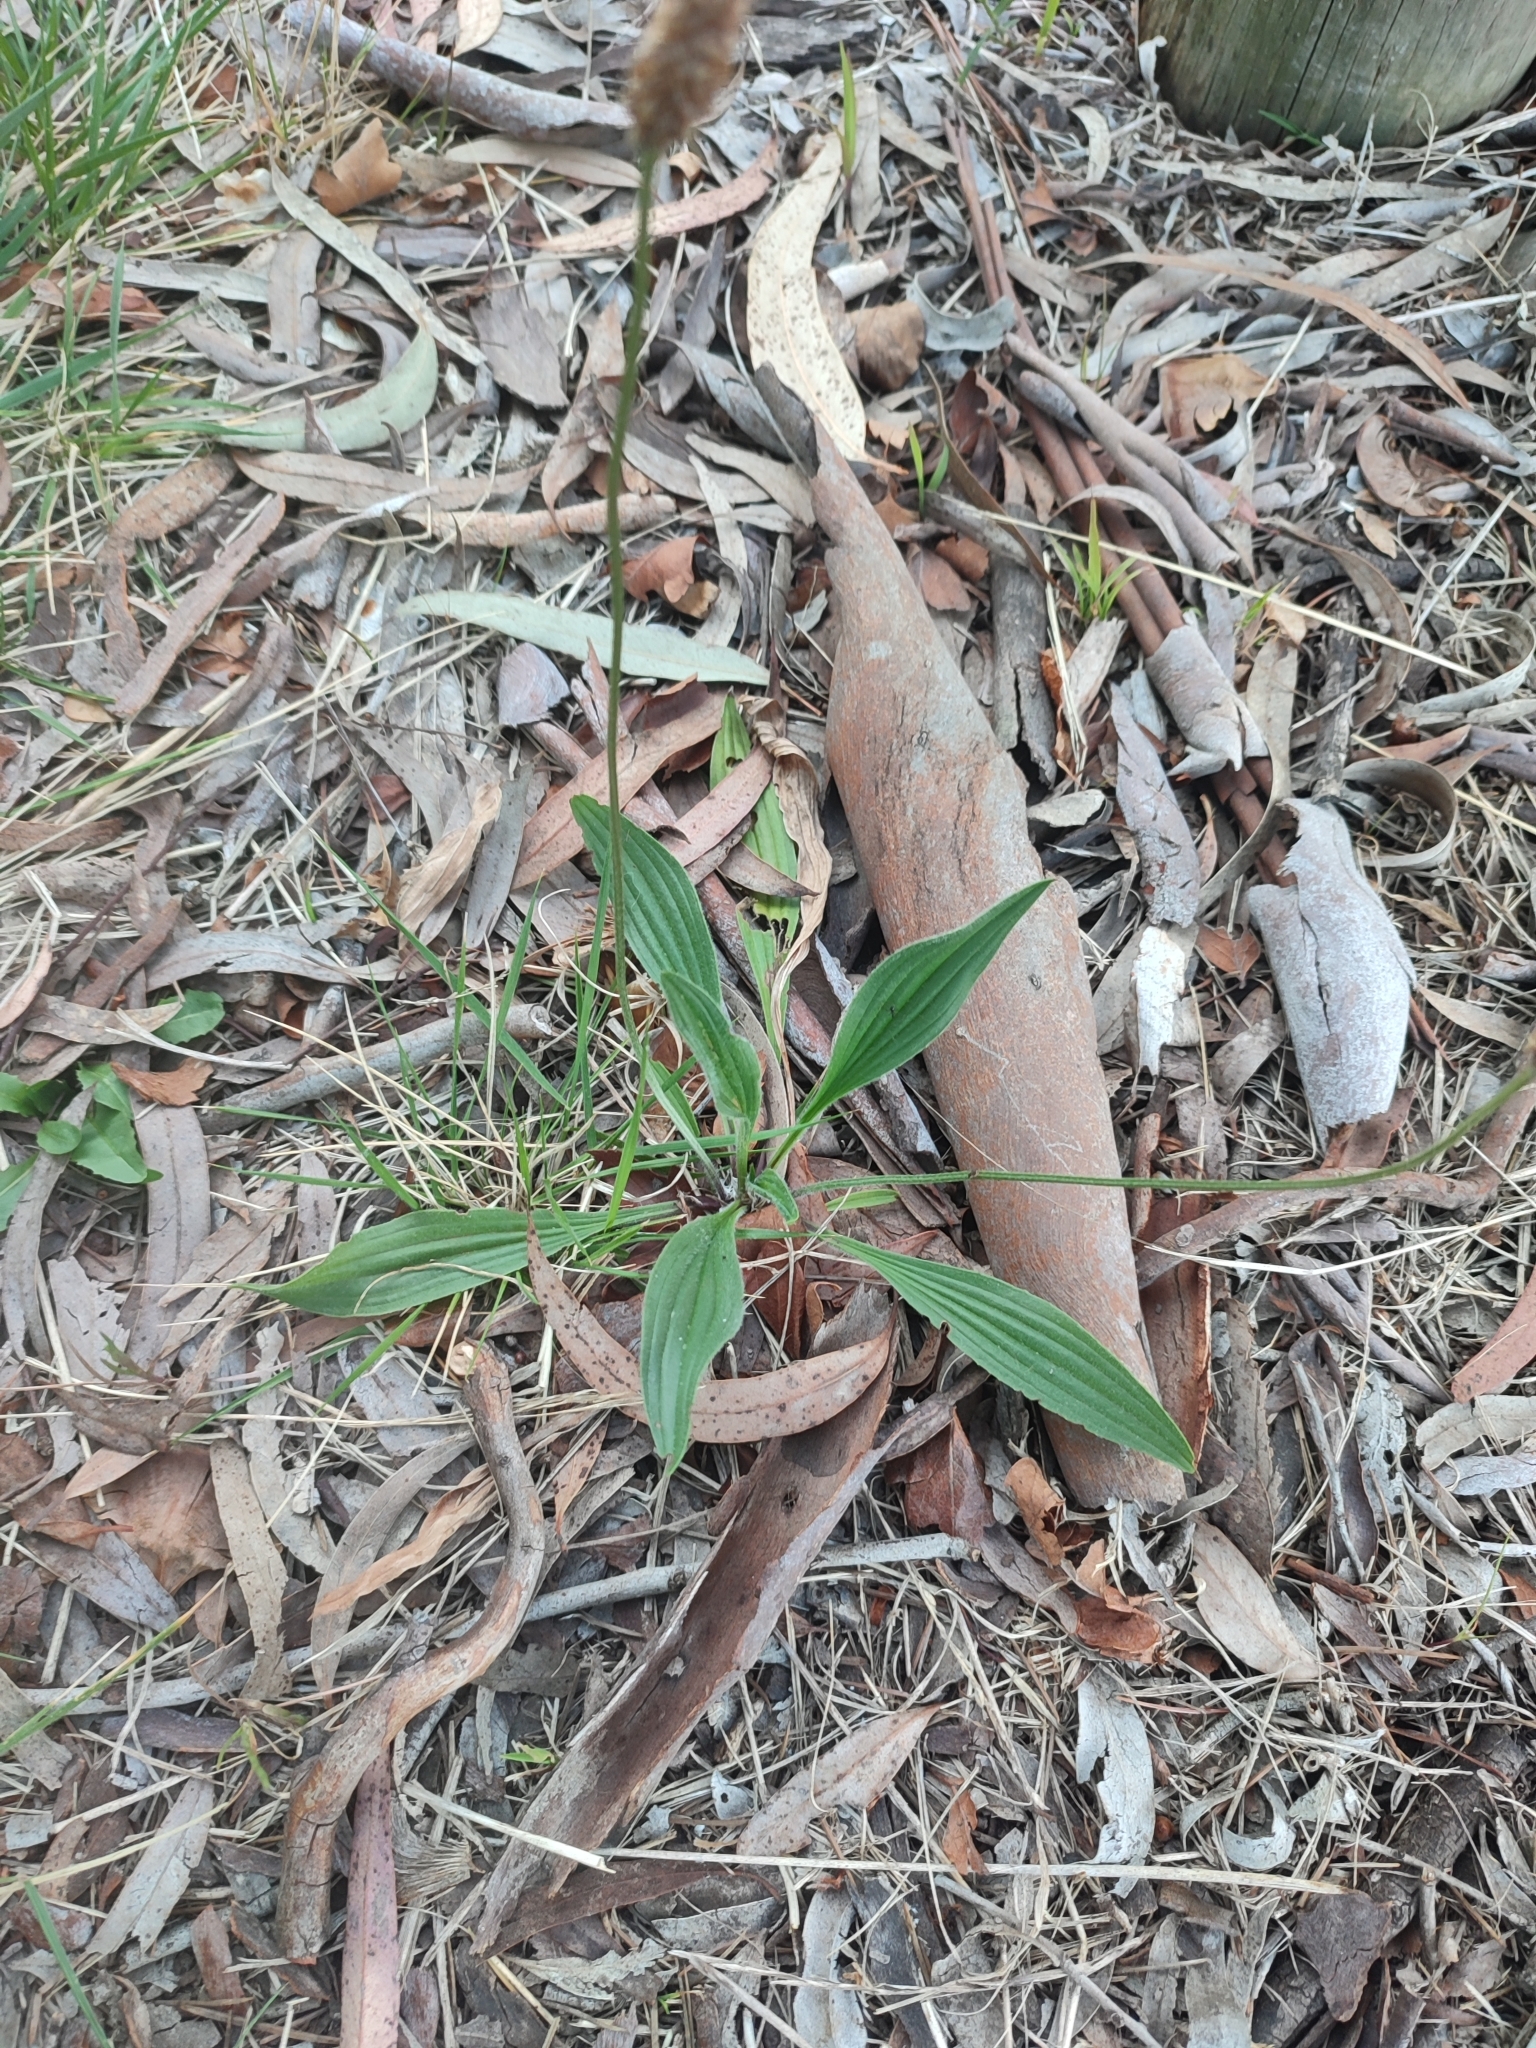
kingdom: Plantae
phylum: Tracheophyta
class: Magnoliopsida
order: Lamiales
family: Plantaginaceae
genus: Plantago
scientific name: Plantago lanceolata
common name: Ribwort plantain
